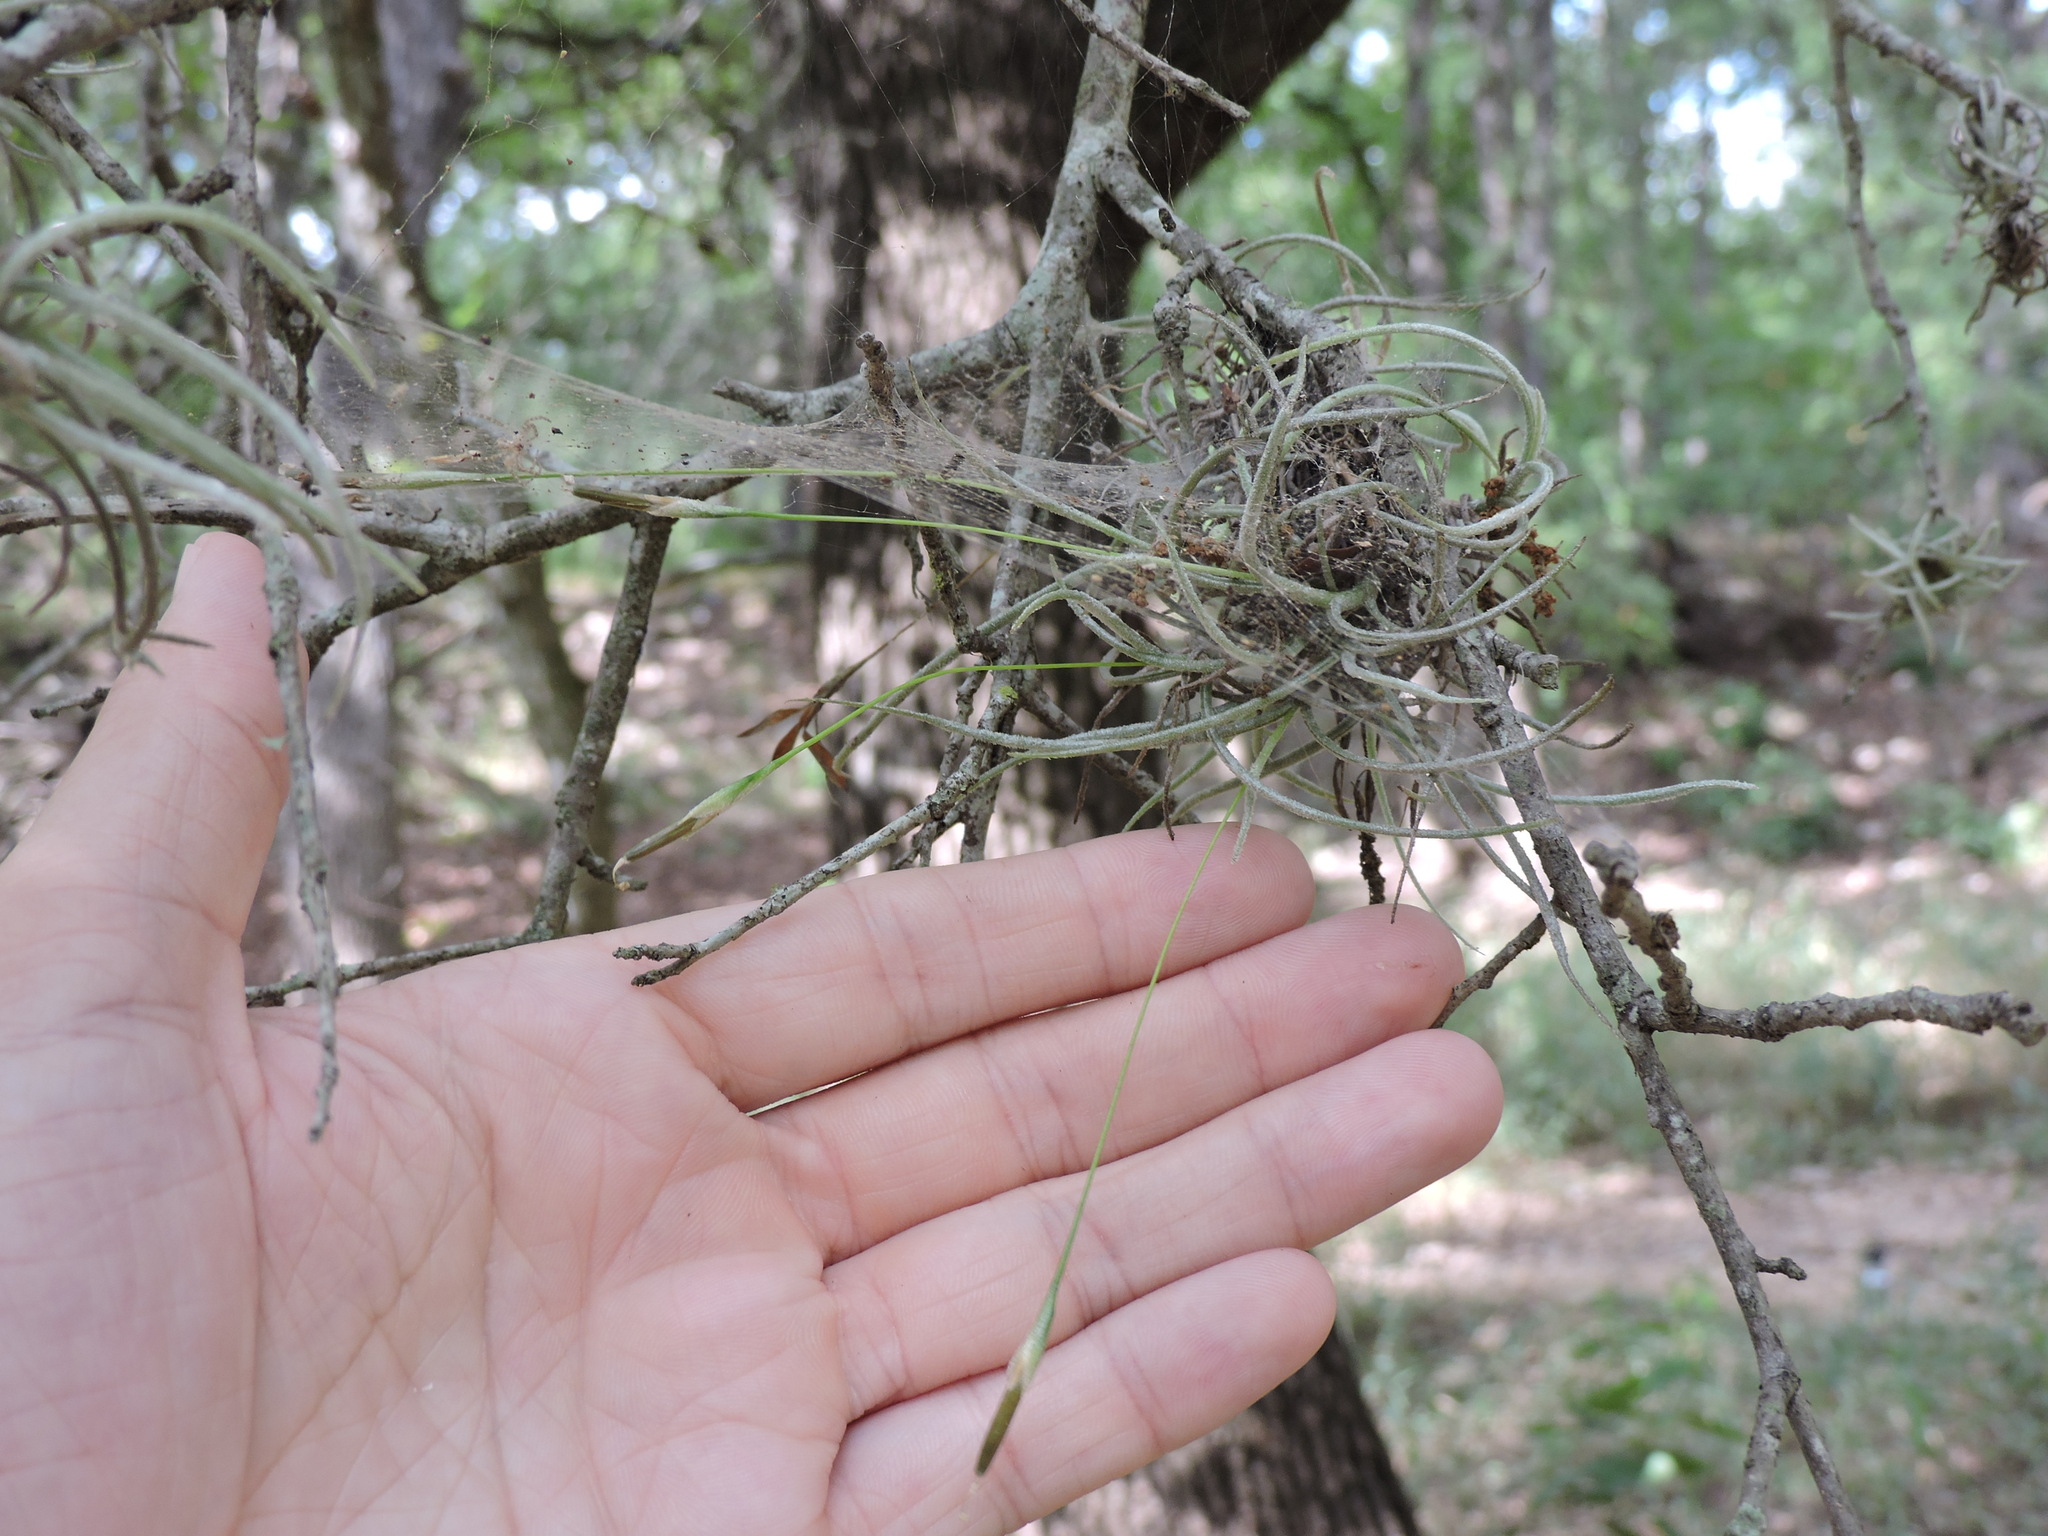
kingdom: Plantae
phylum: Tracheophyta
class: Liliopsida
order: Poales
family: Bromeliaceae
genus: Tillandsia
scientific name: Tillandsia recurvata
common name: Small ballmoss
